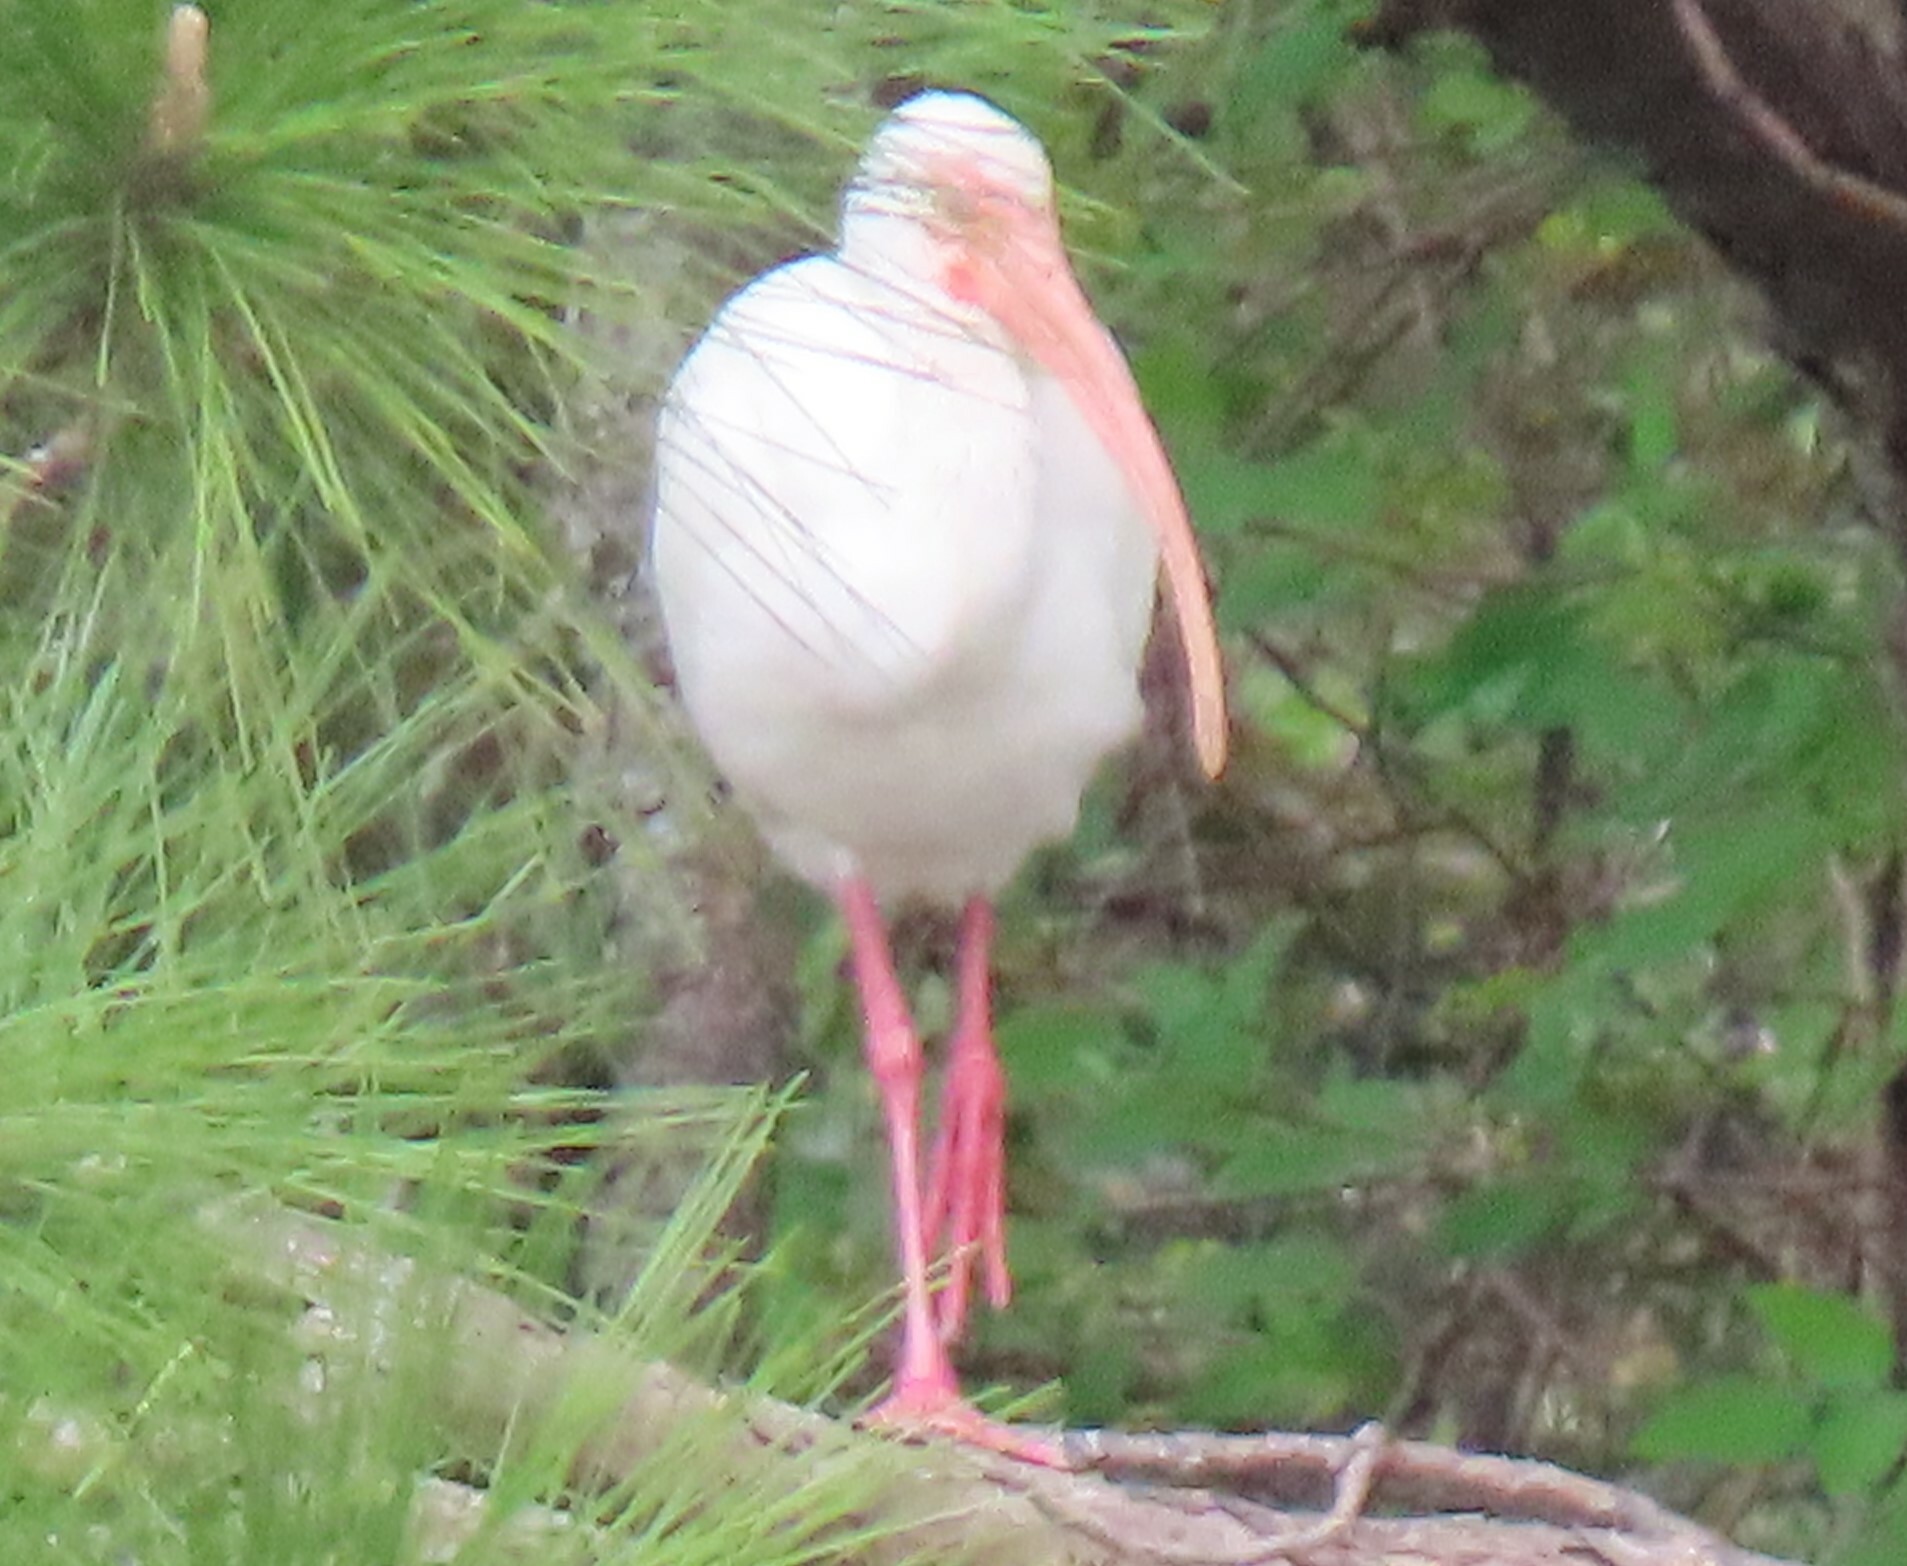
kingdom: Animalia
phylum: Chordata
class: Aves
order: Pelecaniformes
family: Threskiornithidae
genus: Eudocimus
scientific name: Eudocimus albus
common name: White ibis
